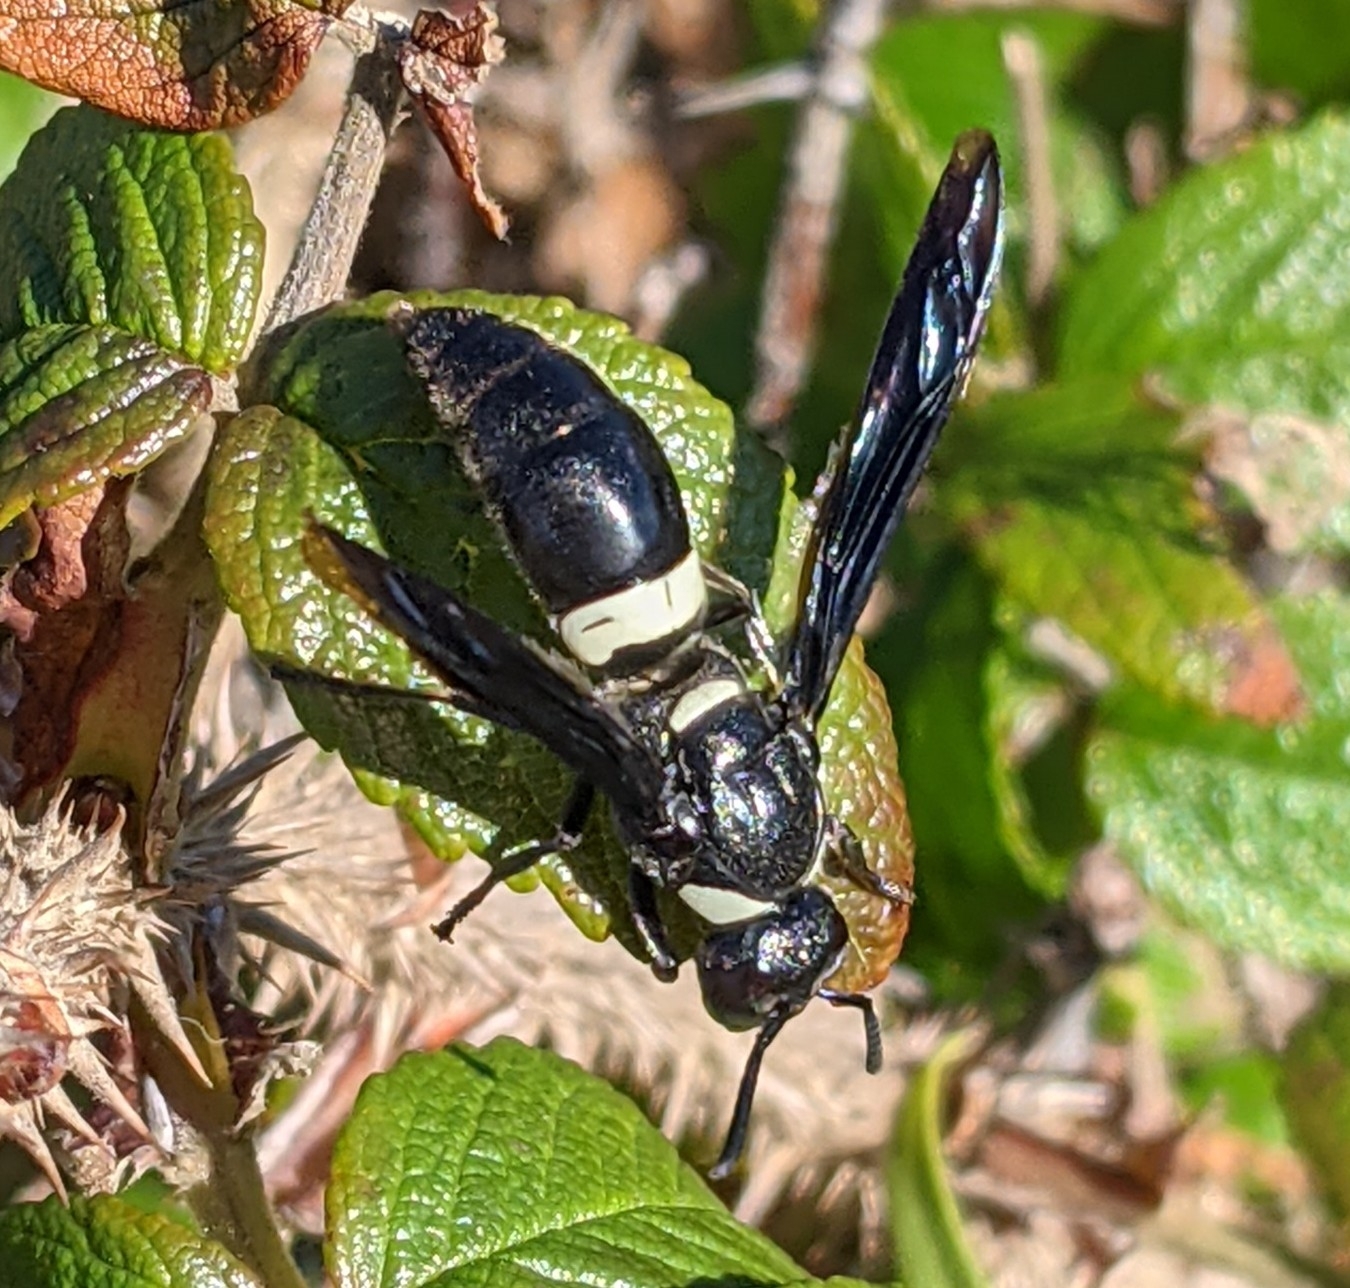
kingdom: Animalia
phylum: Arthropoda
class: Insecta
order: Hymenoptera
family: Eumenidae
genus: Monobia
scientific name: Monobia quadridens
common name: Four-toothed mason wasp
